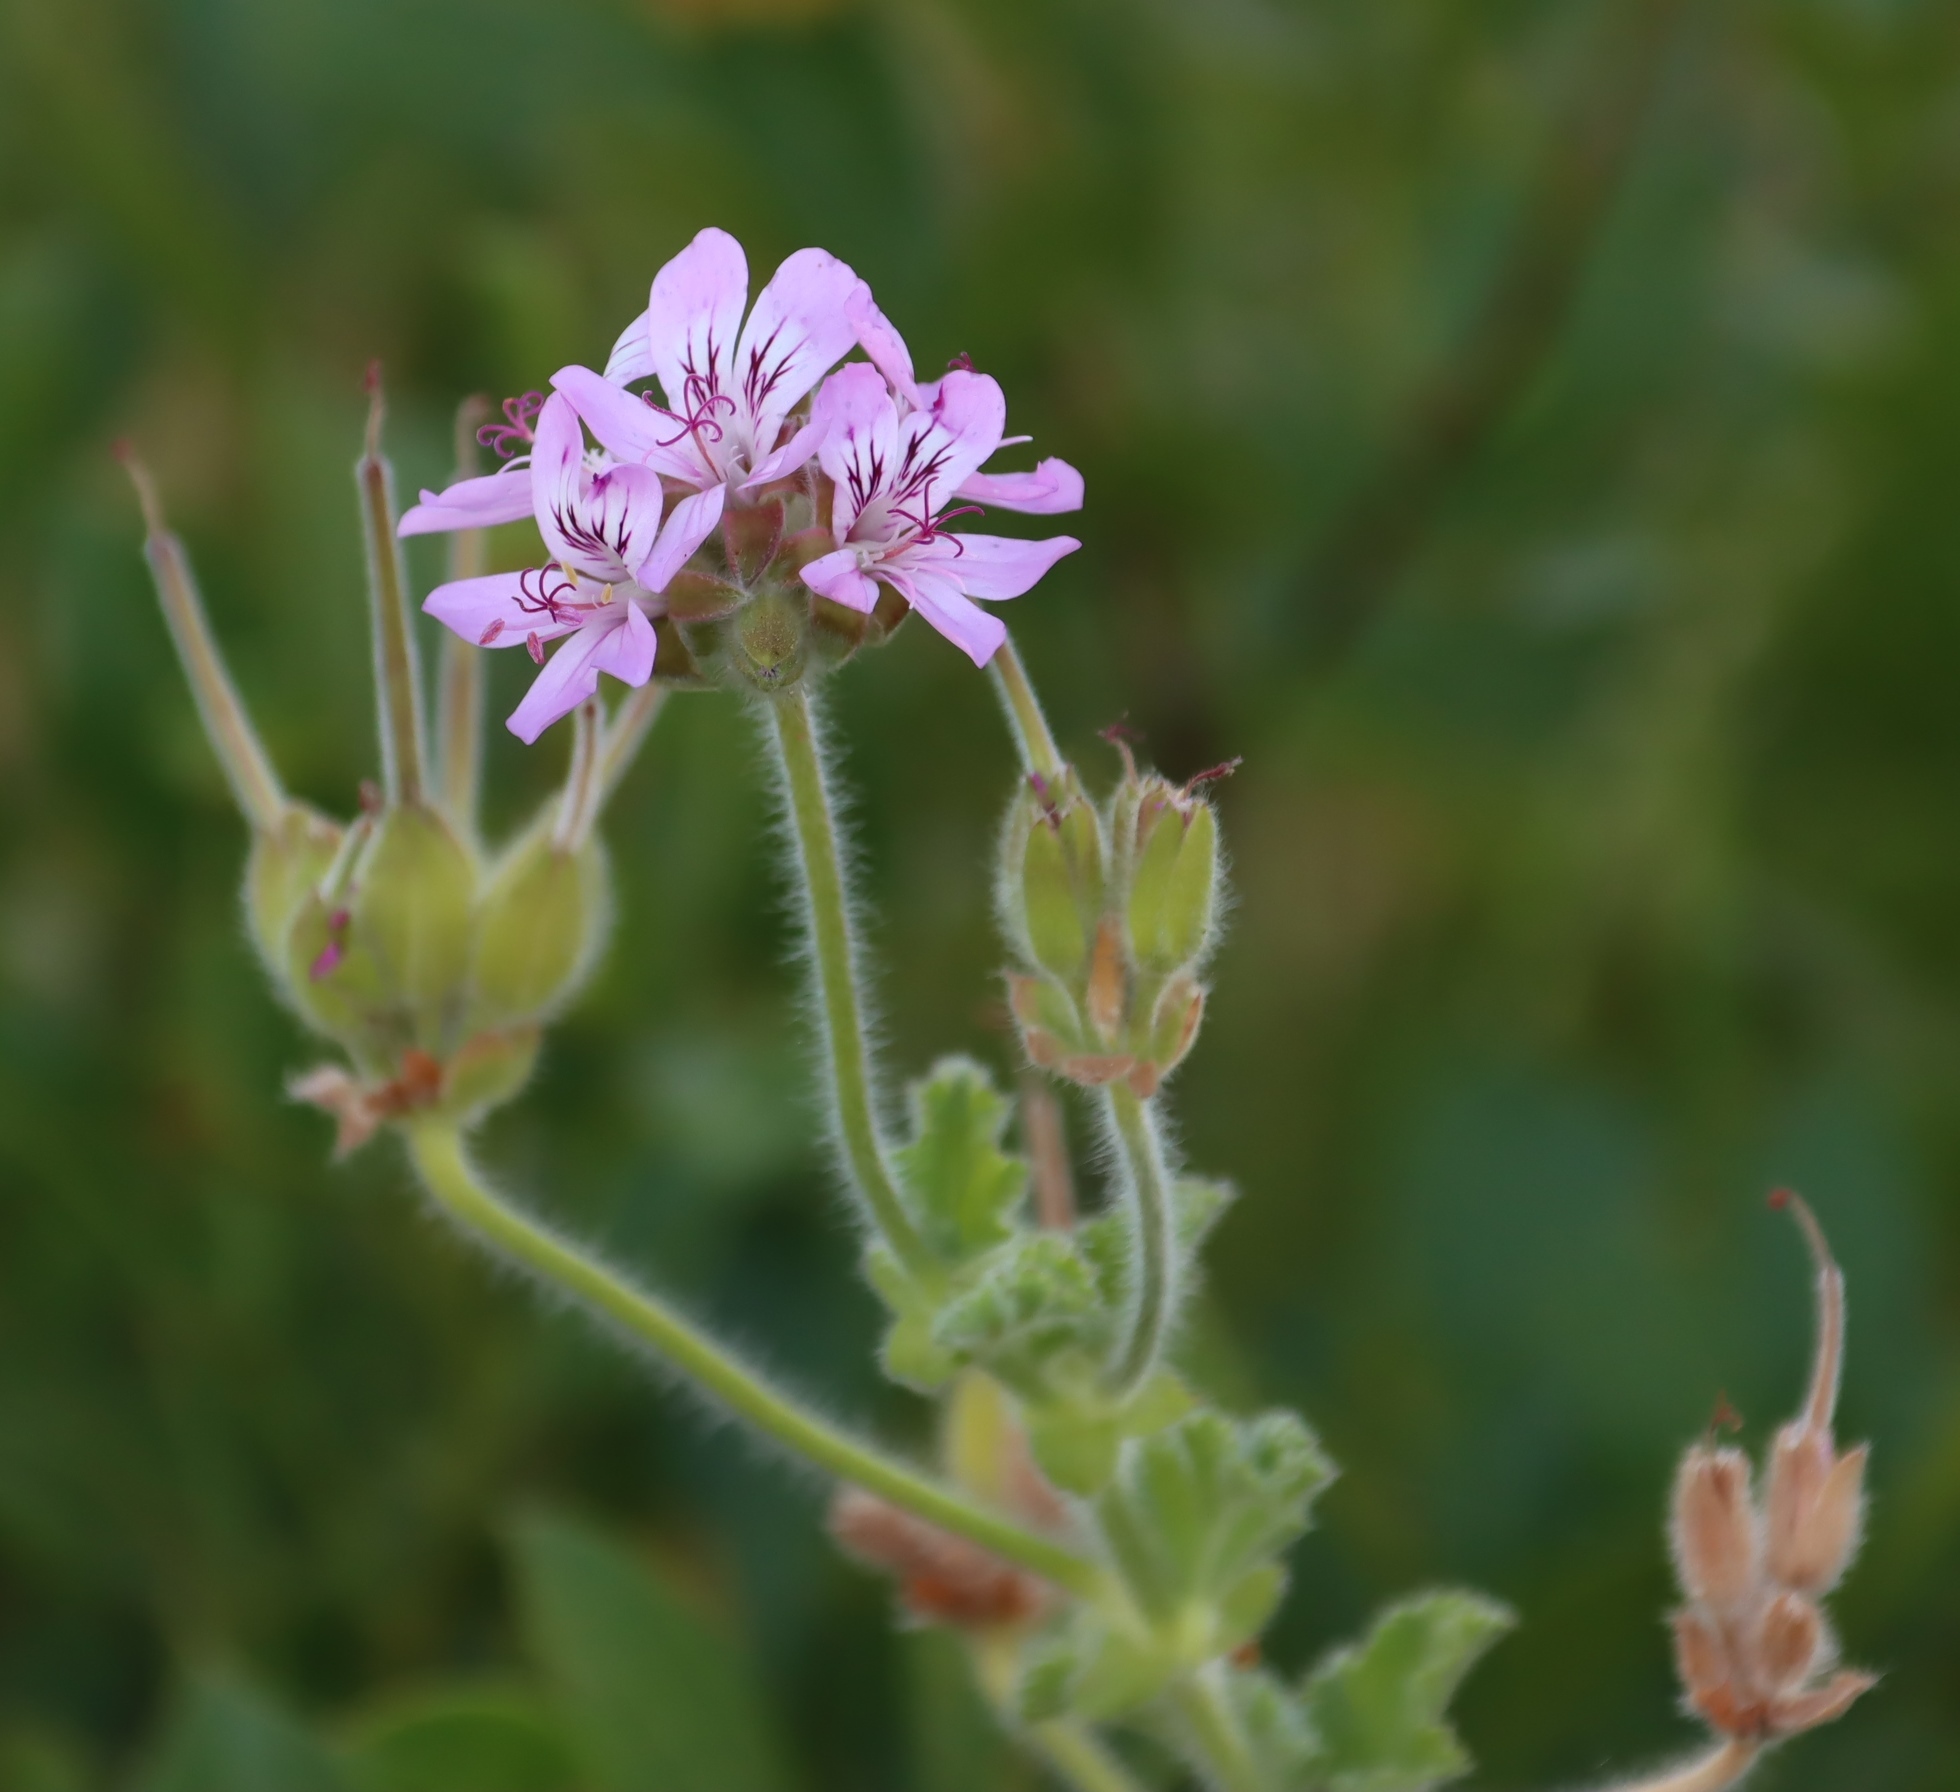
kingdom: Plantae
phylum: Tracheophyta
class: Magnoliopsida
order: Geraniales
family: Geraniaceae
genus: Pelargonium
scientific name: Pelargonium capitatum
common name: Rose scented geranium
